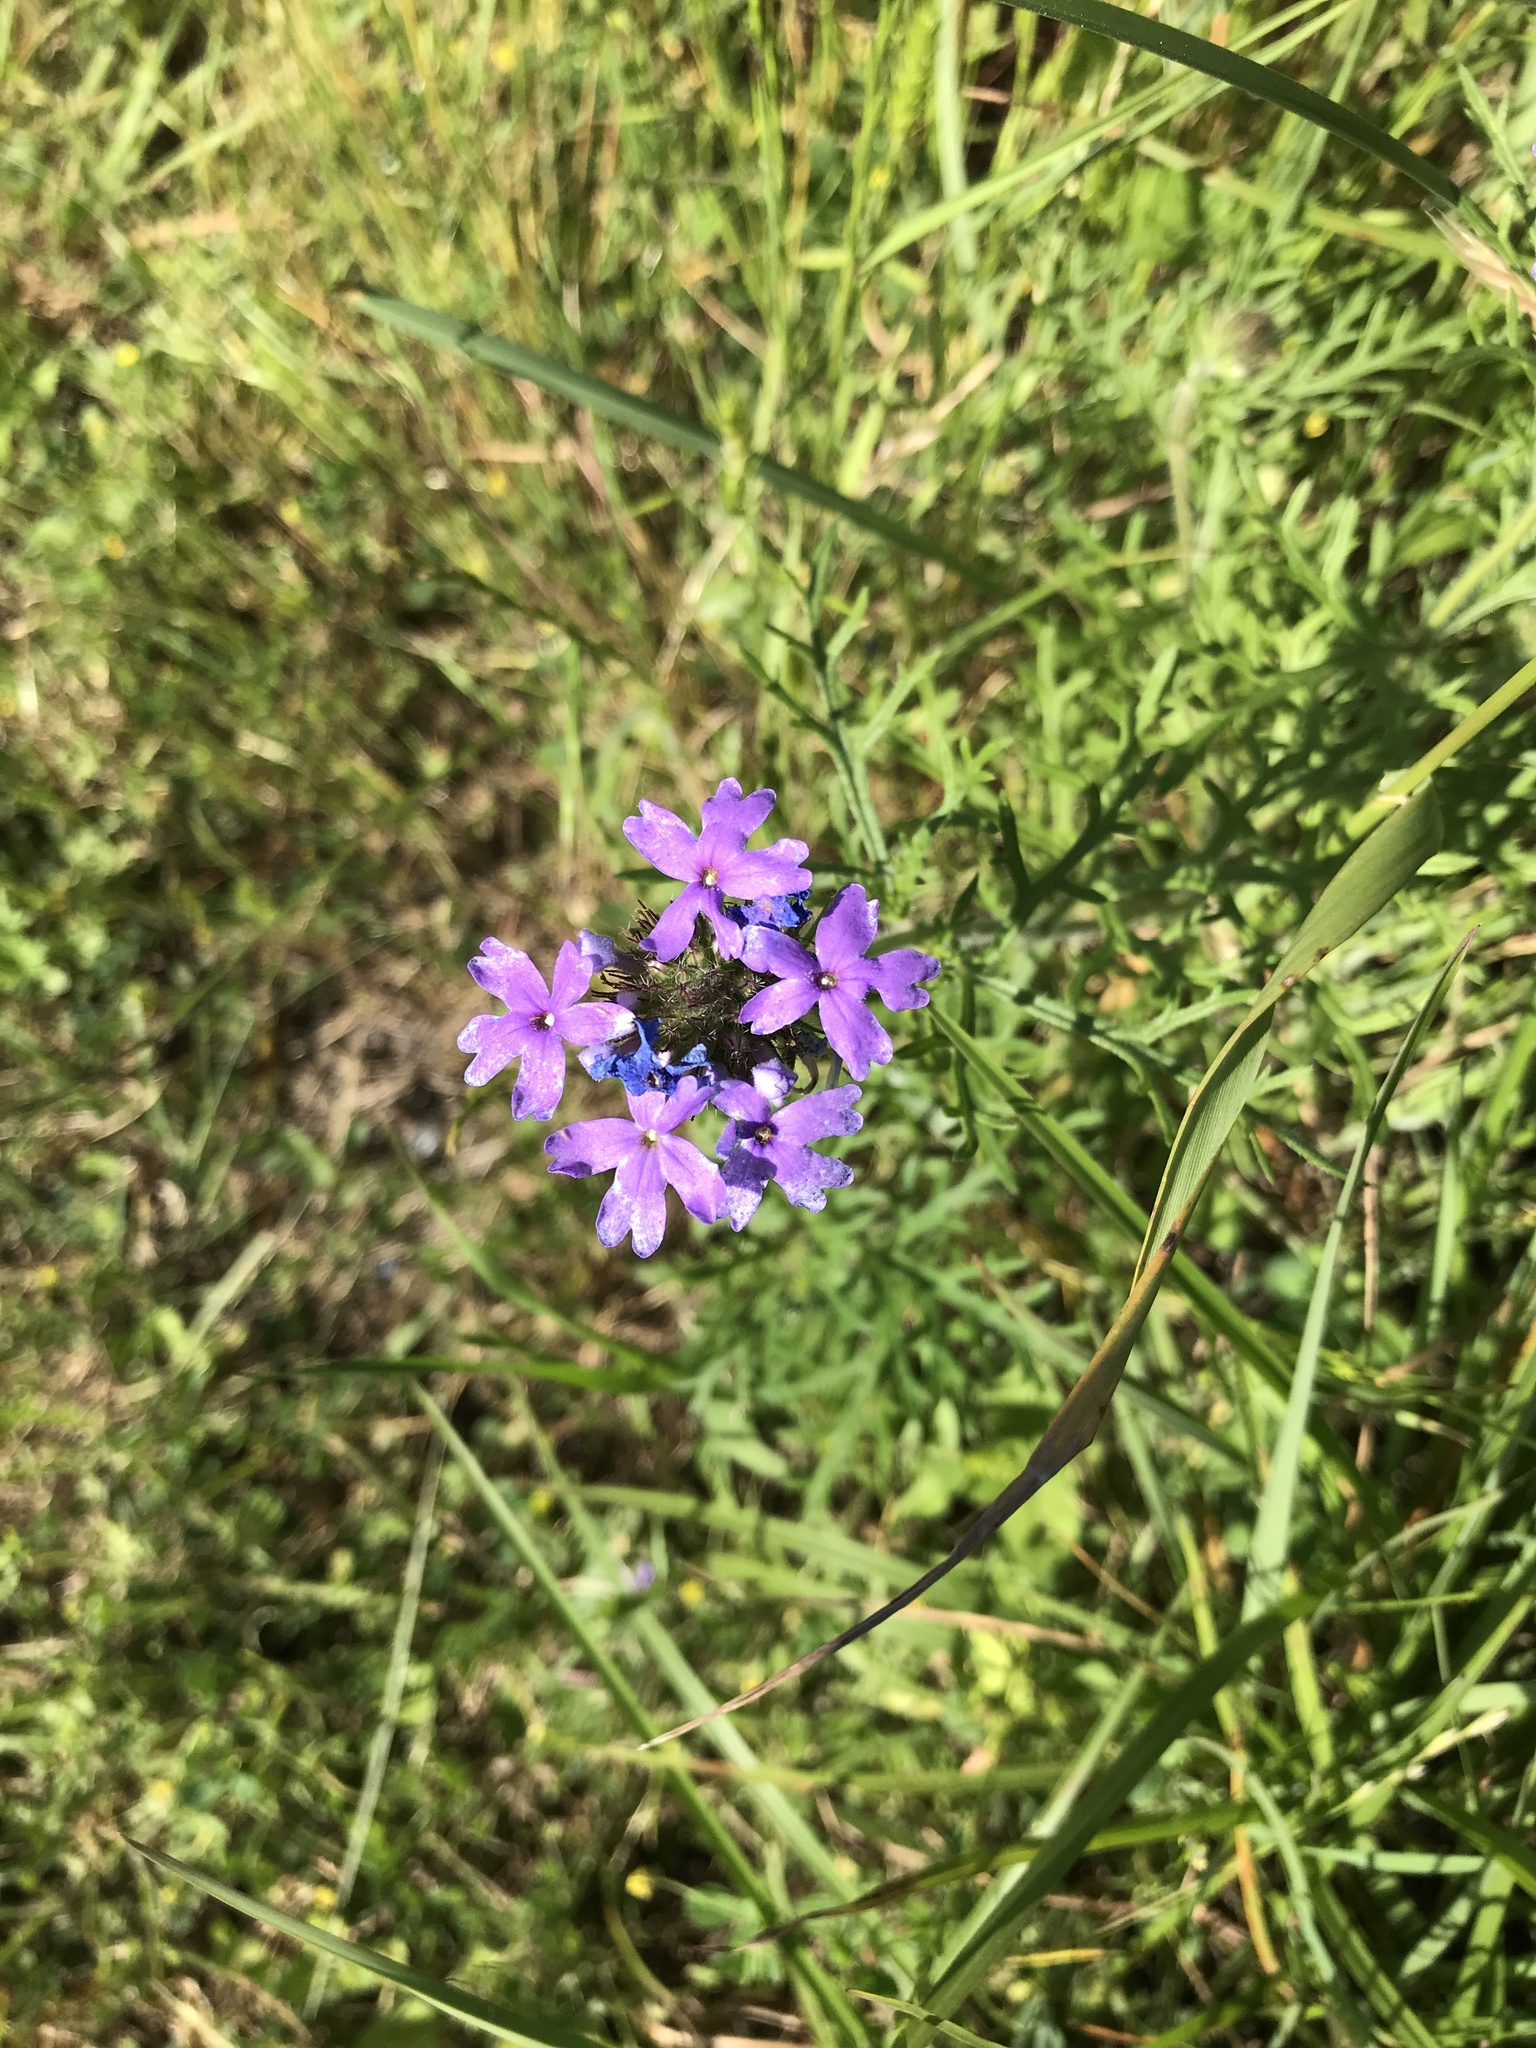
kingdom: Plantae
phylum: Tracheophyta
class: Magnoliopsida
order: Lamiales
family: Verbenaceae
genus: Verbena
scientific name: Verbena bipinnatifida
